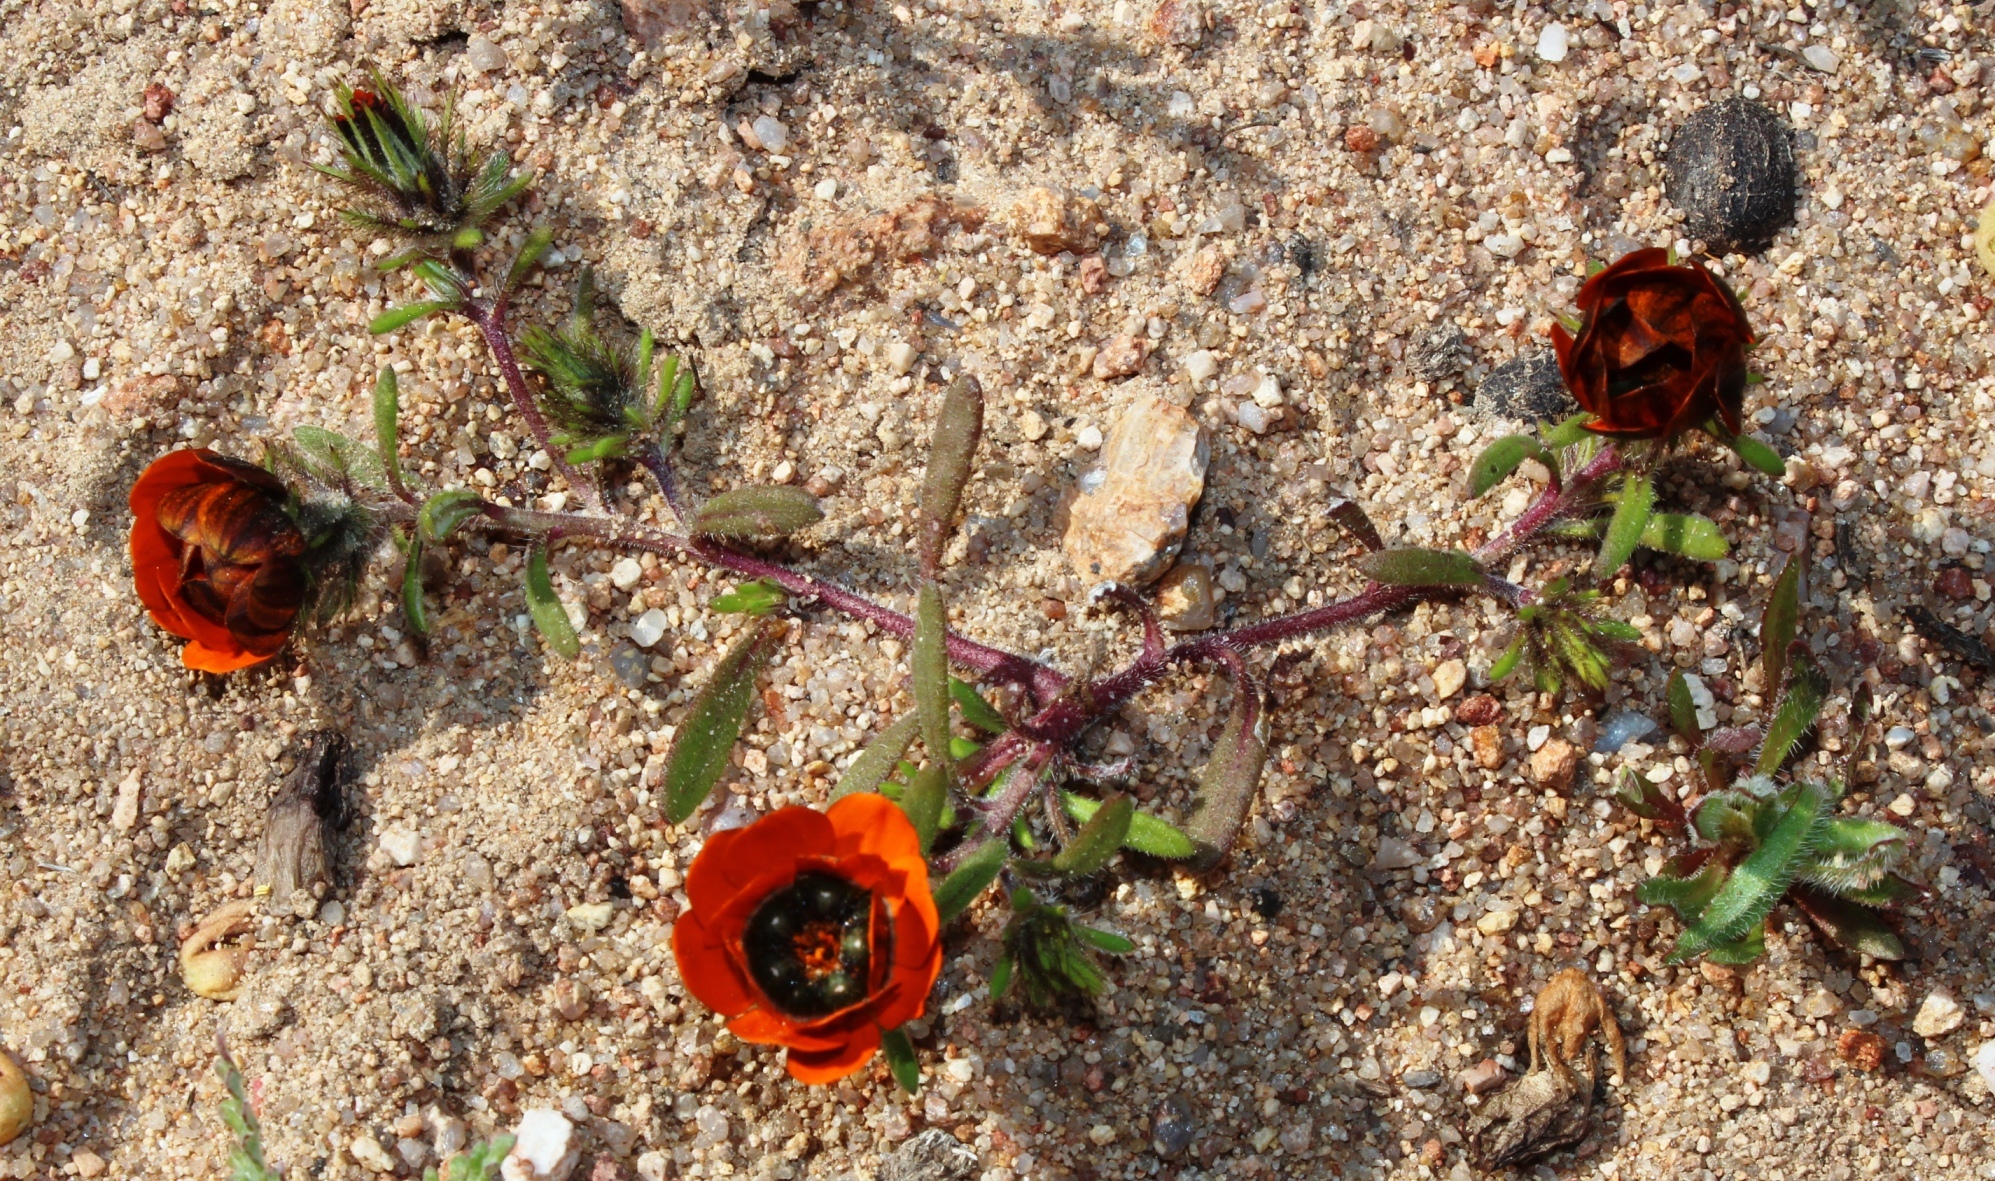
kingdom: Plantae
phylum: Tracheophyta
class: Magnoliopsida
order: Asterales
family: Asteraceae
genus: Gorteria
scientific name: Gorteria diffusa
